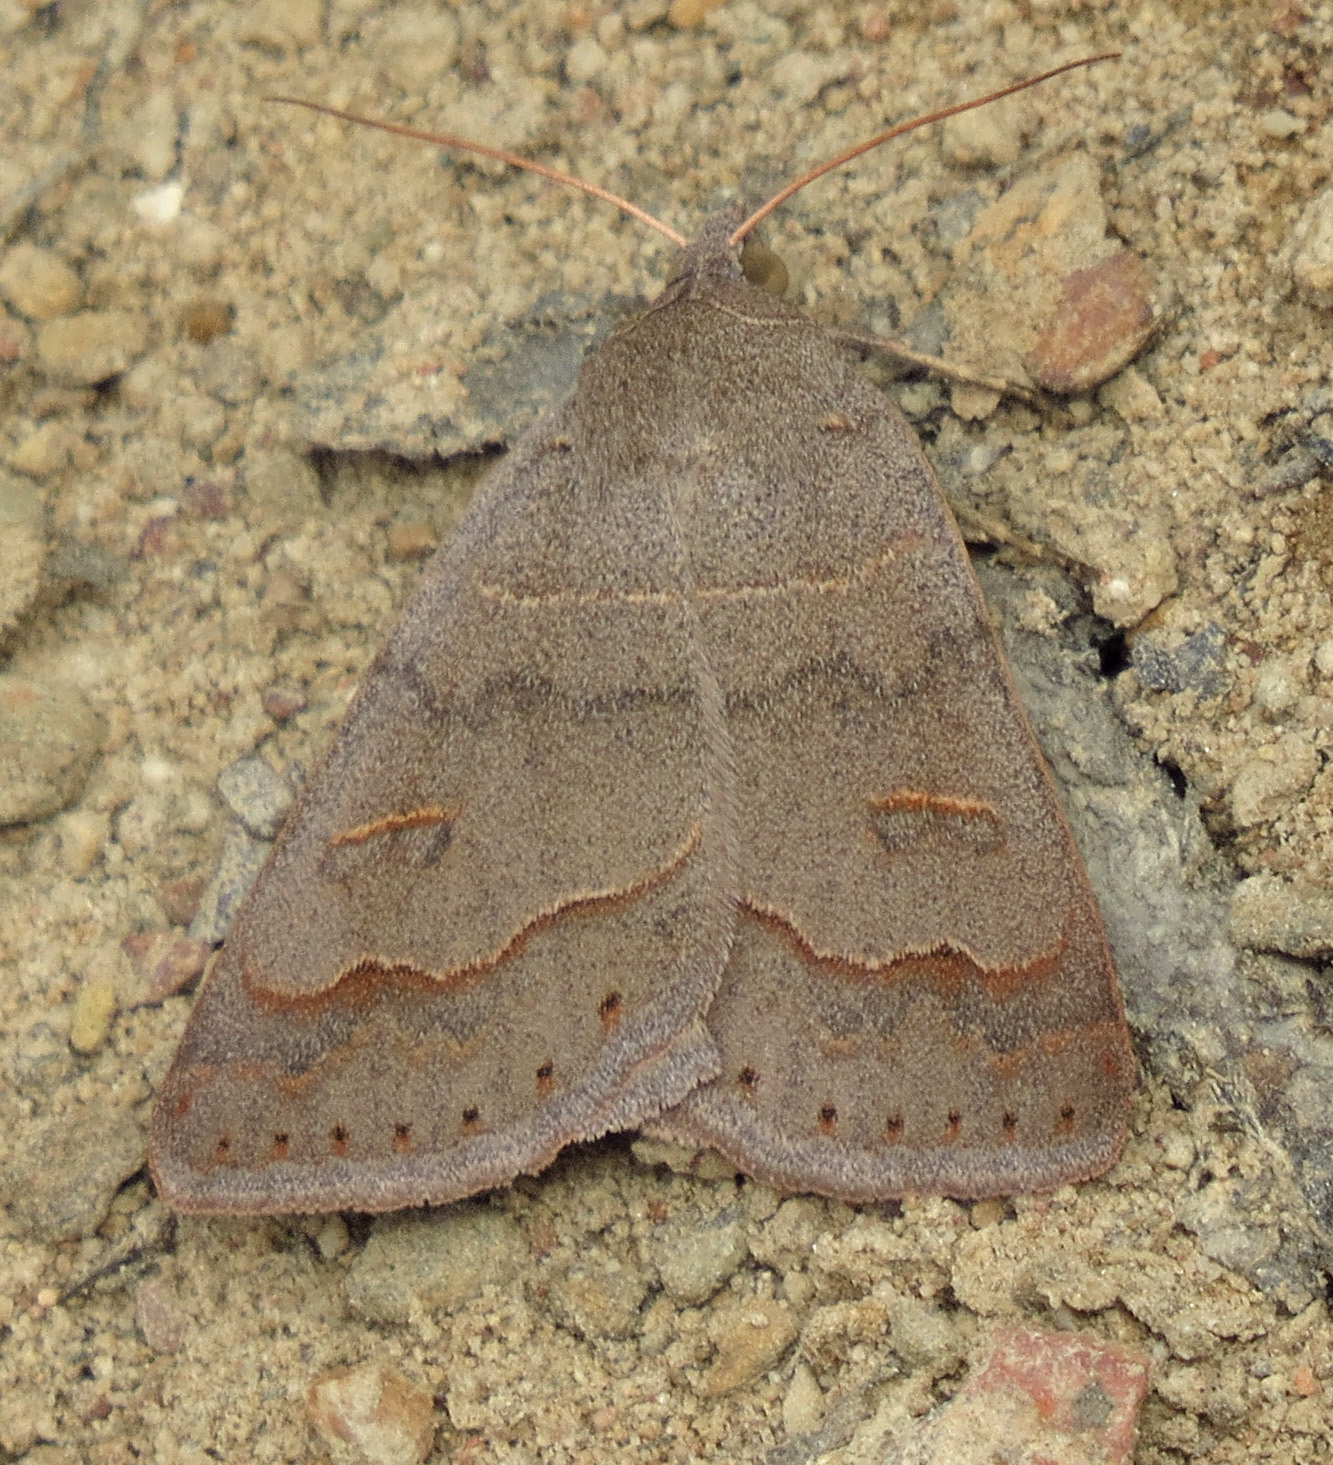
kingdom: Animalia
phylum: Arthropoda
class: Insecta
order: Lepidoptera
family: Erebidae
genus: Phoberia
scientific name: Phoberia atomaris
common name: Common oak moth
